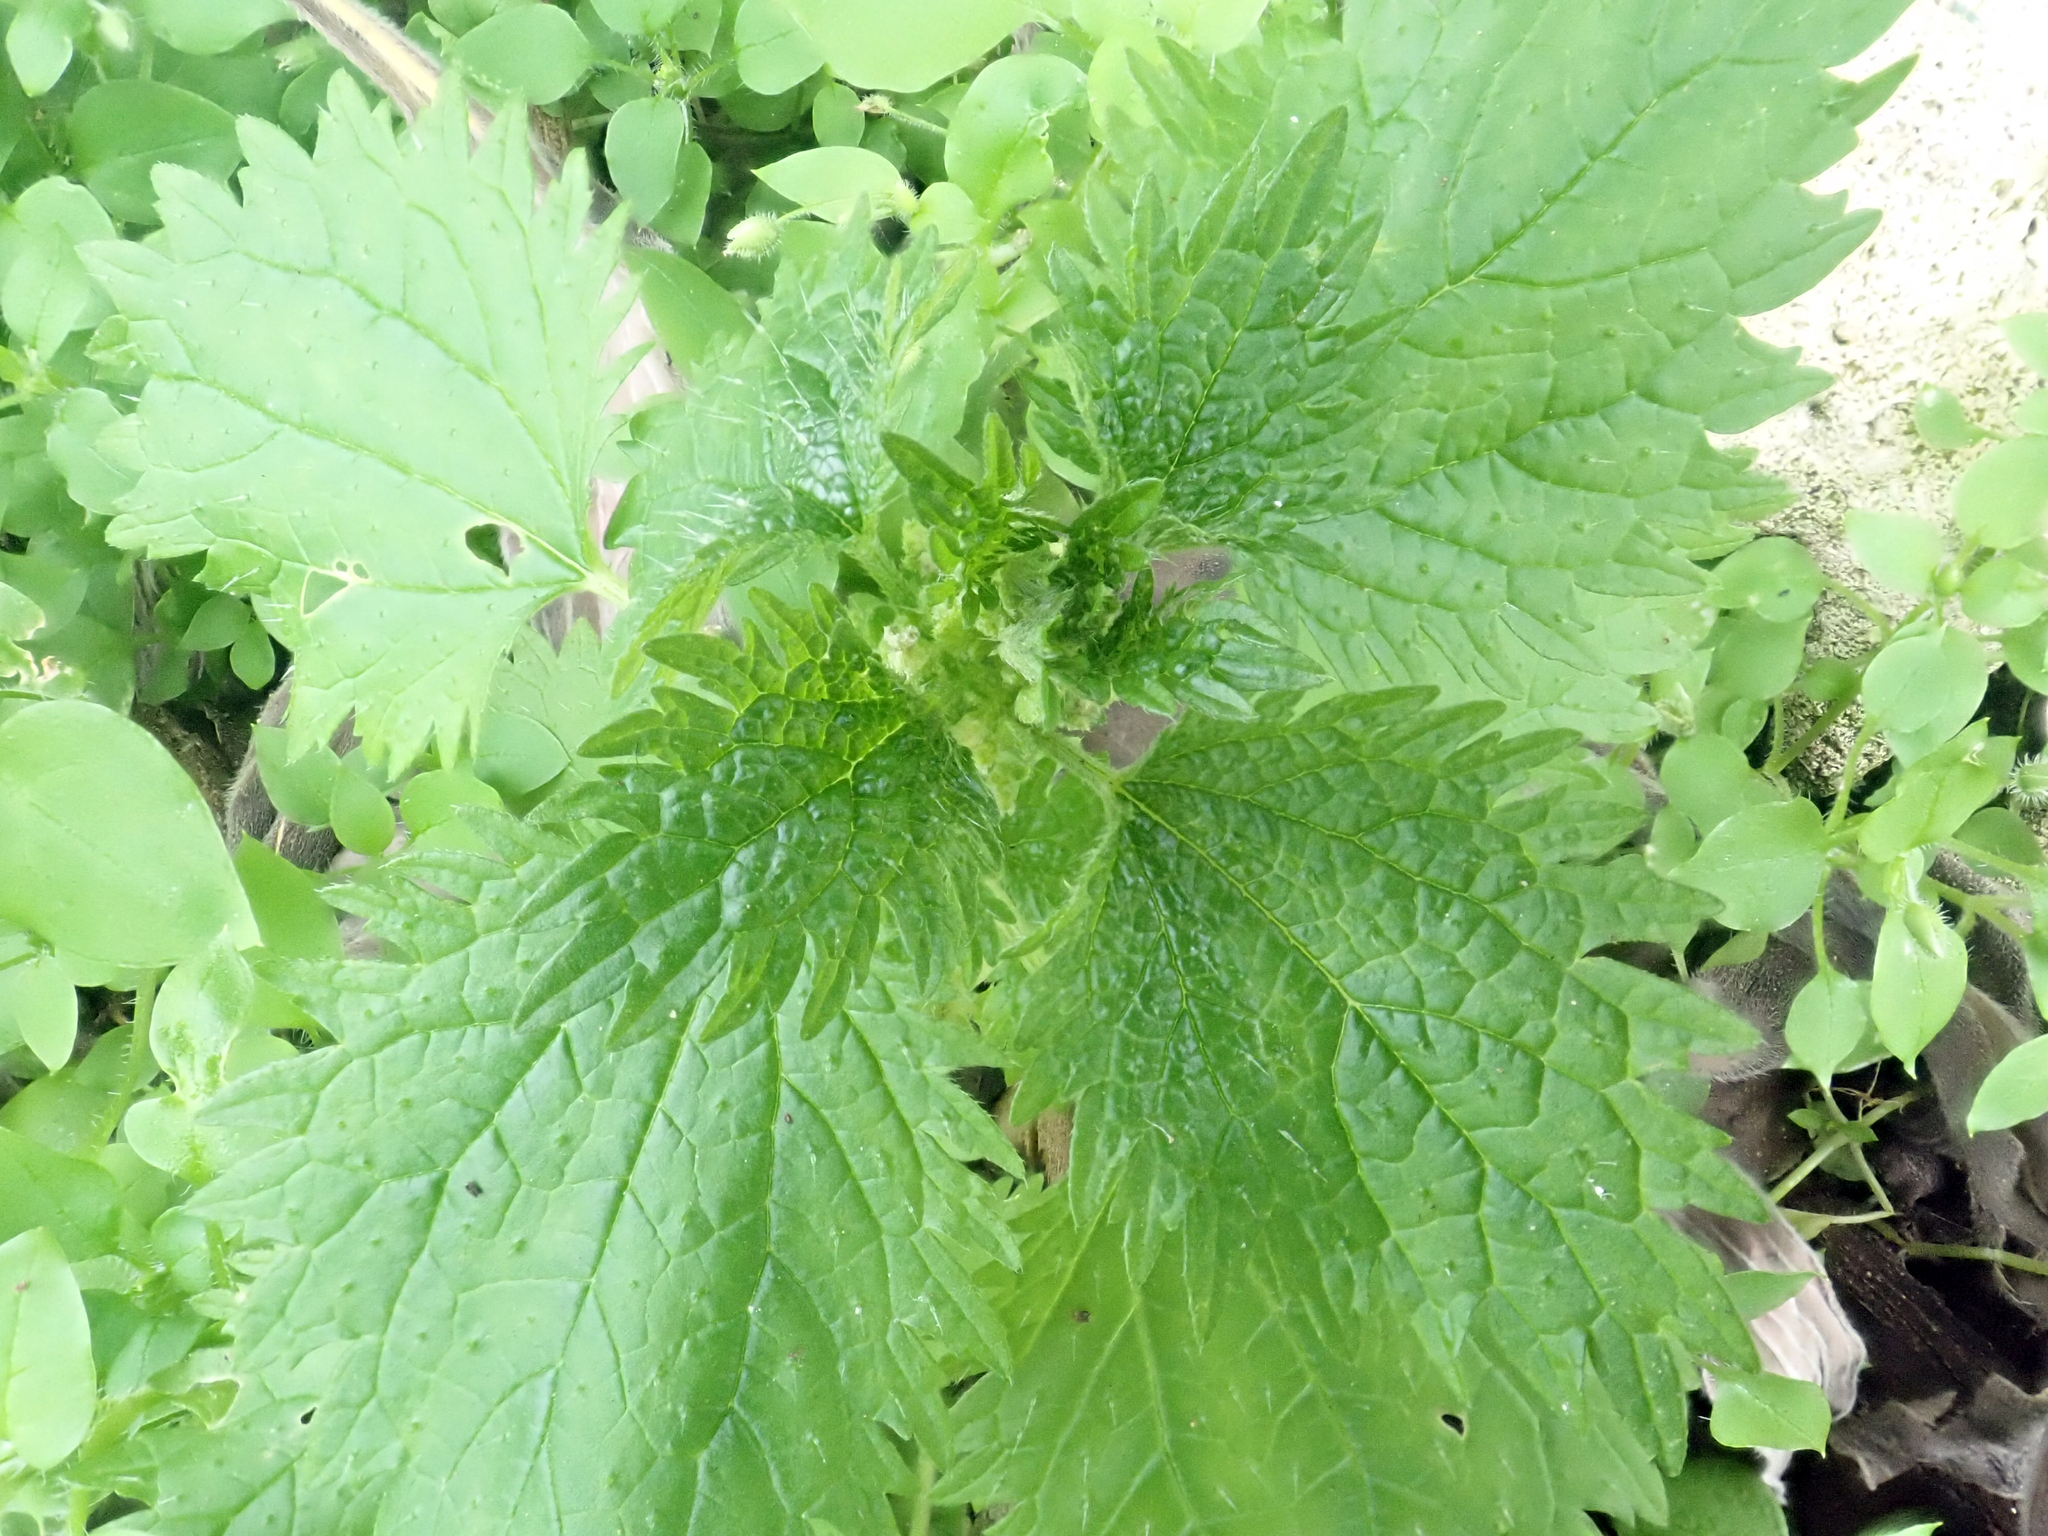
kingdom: Plantae
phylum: Tracheophyta
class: Magnoliopsida
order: Rosales
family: Urticaceae
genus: Urtica
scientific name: Urtica urens
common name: Dwarf nettle
